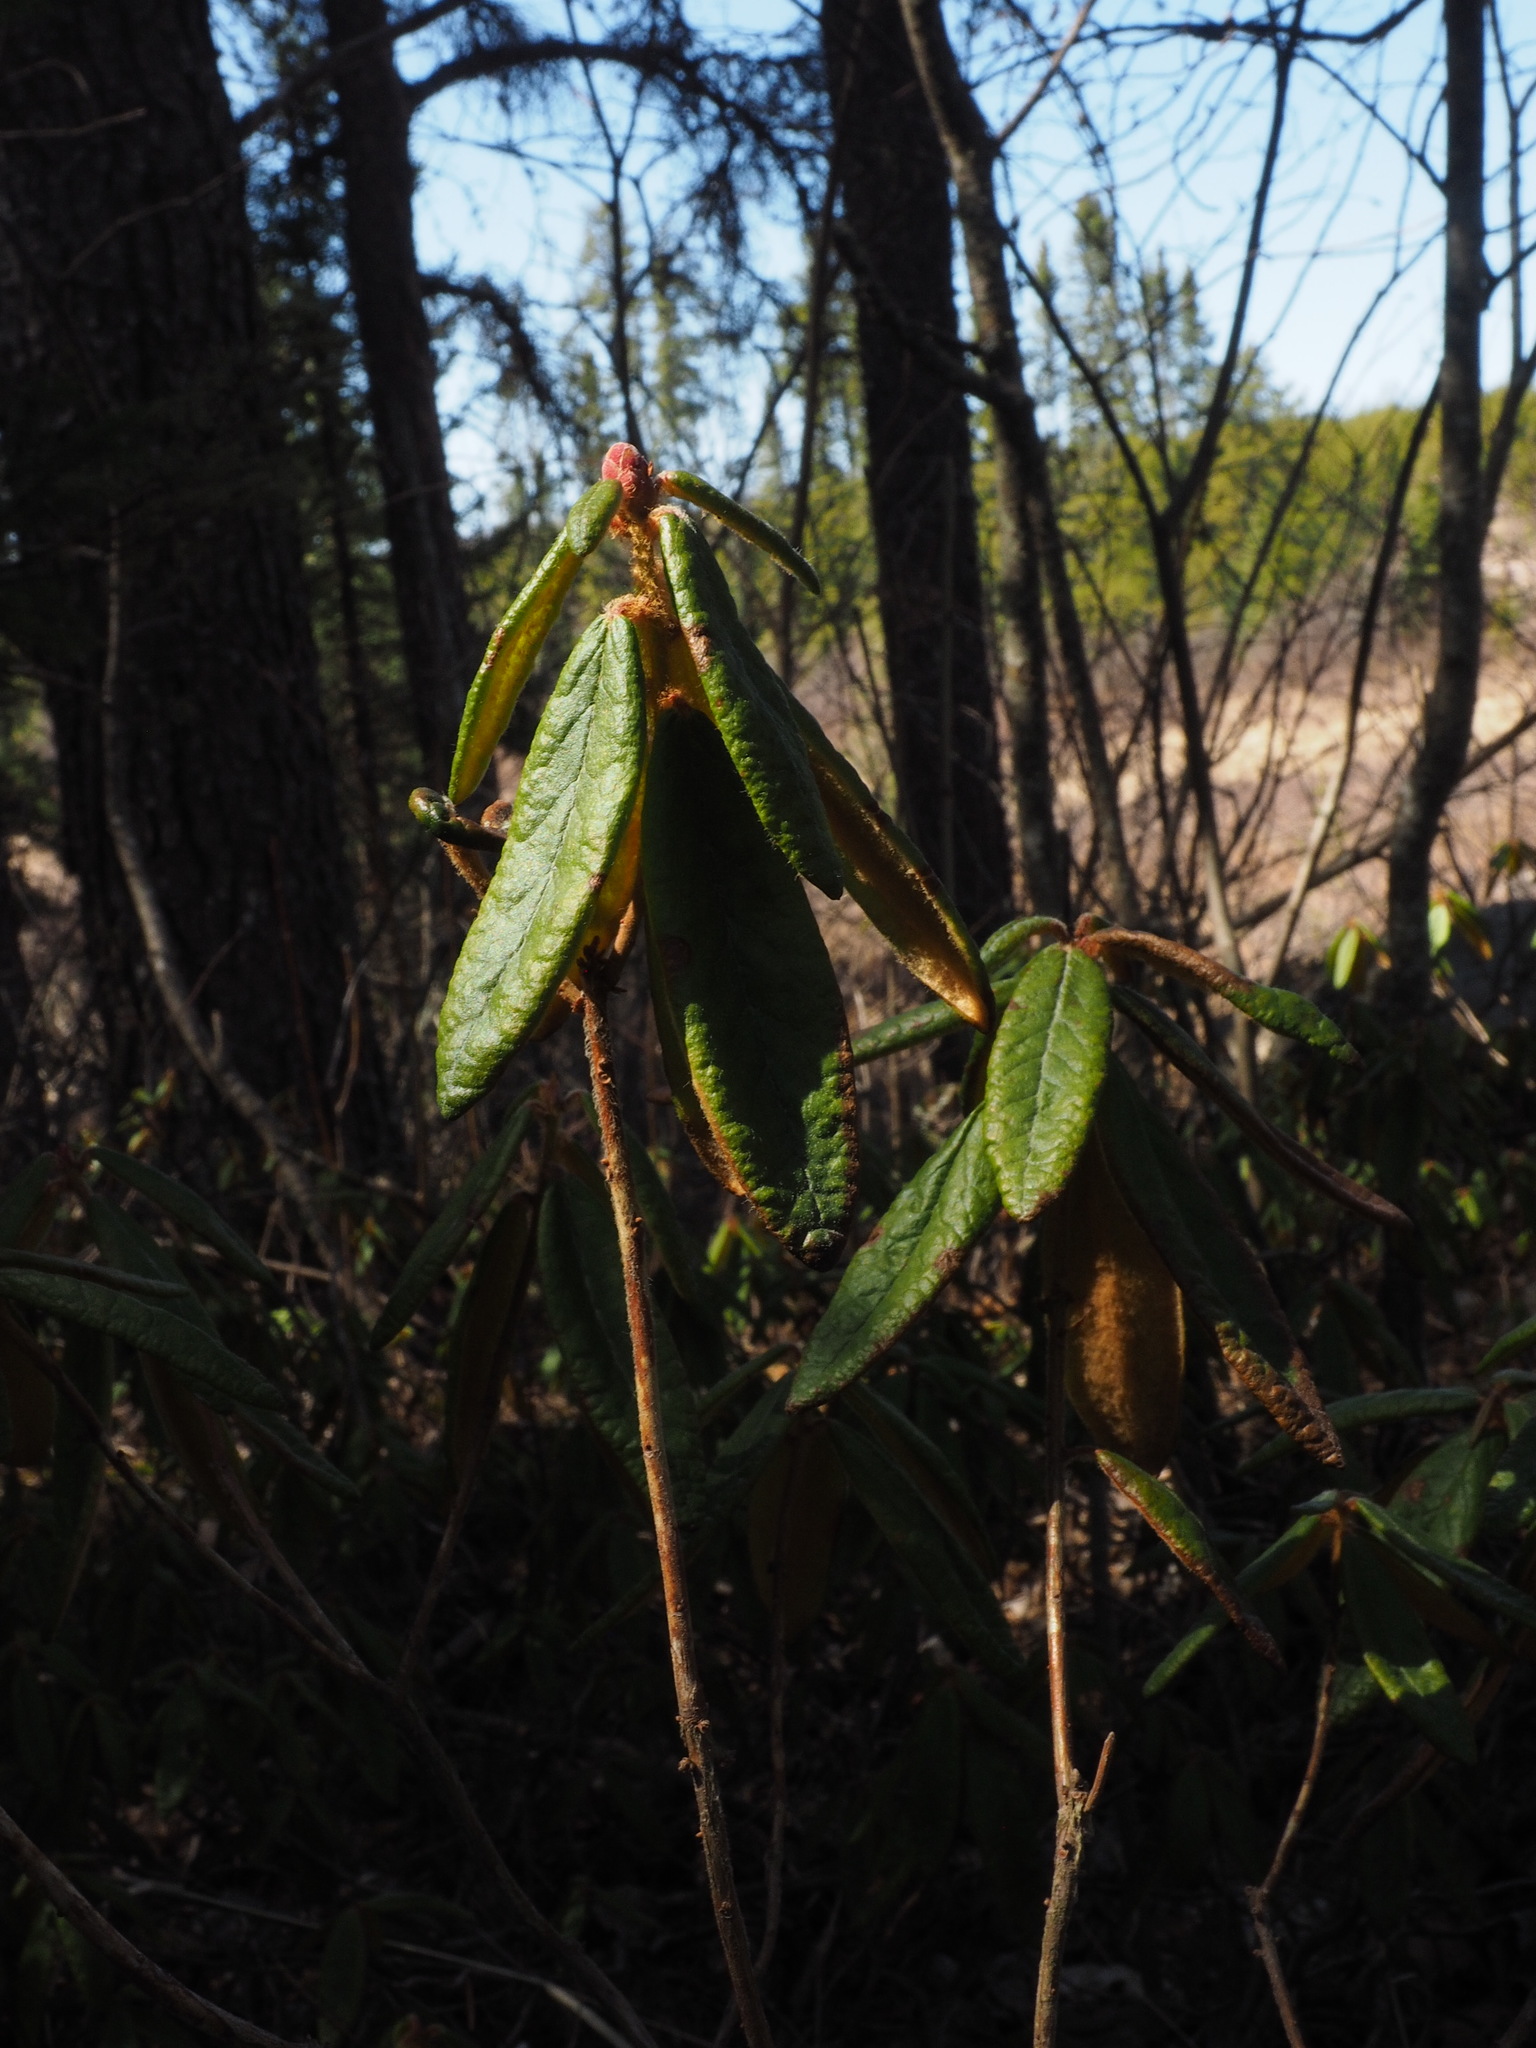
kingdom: Plantae
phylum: Tracheophyta
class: Magnoliopsida
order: Ericales
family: Ericaceae
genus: Rhododendron
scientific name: Rhododendron groenlandicum
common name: Bog labrador tea
